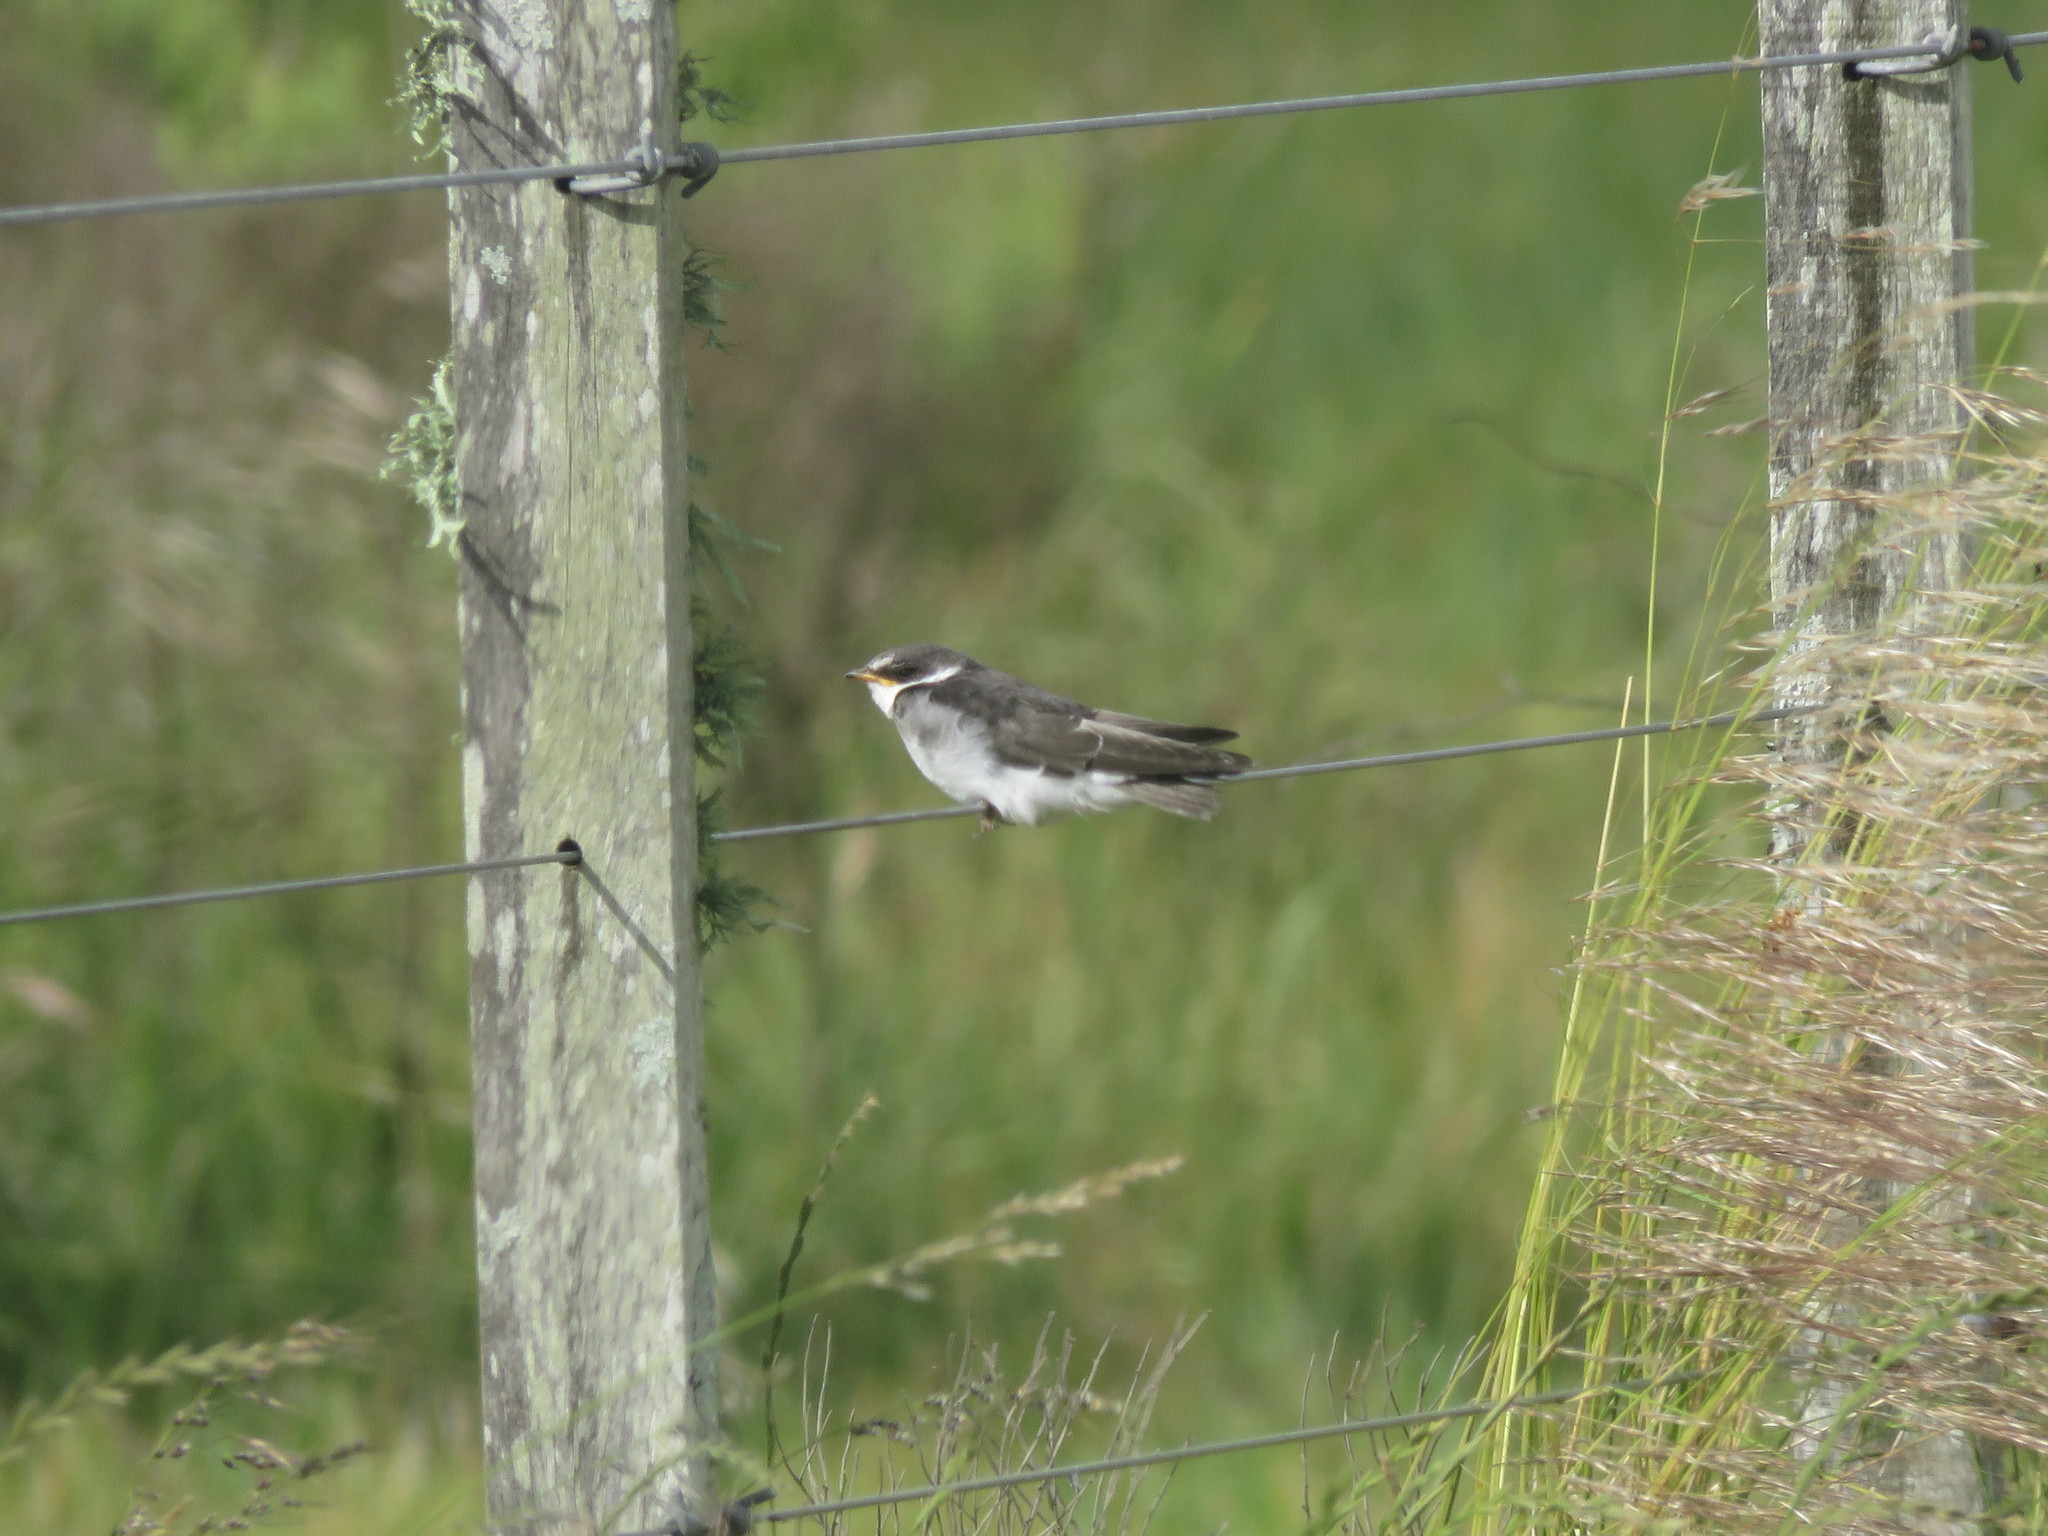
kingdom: Animalia
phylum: Chordata
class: Aves
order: Passeriformes
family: Hirundinidae
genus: Tachycineta
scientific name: Tachycineta leucorrhoa
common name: White-rumped swallow
